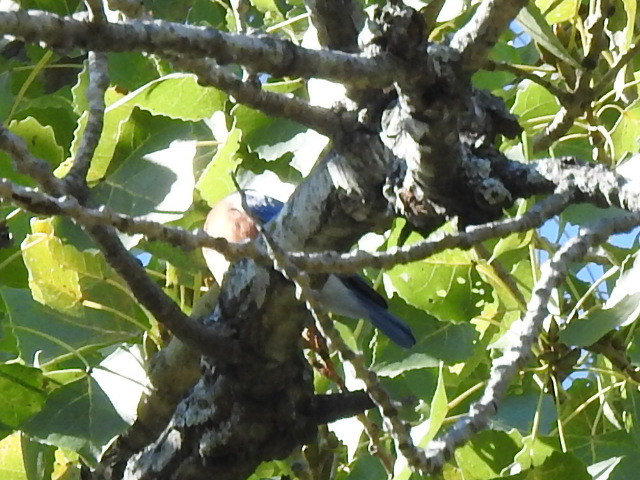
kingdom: Animalia
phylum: Chordata
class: Aves
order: Passeriformes
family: Turdidae
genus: Sialia
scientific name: Sialia sialis
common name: Eastern bluebird
